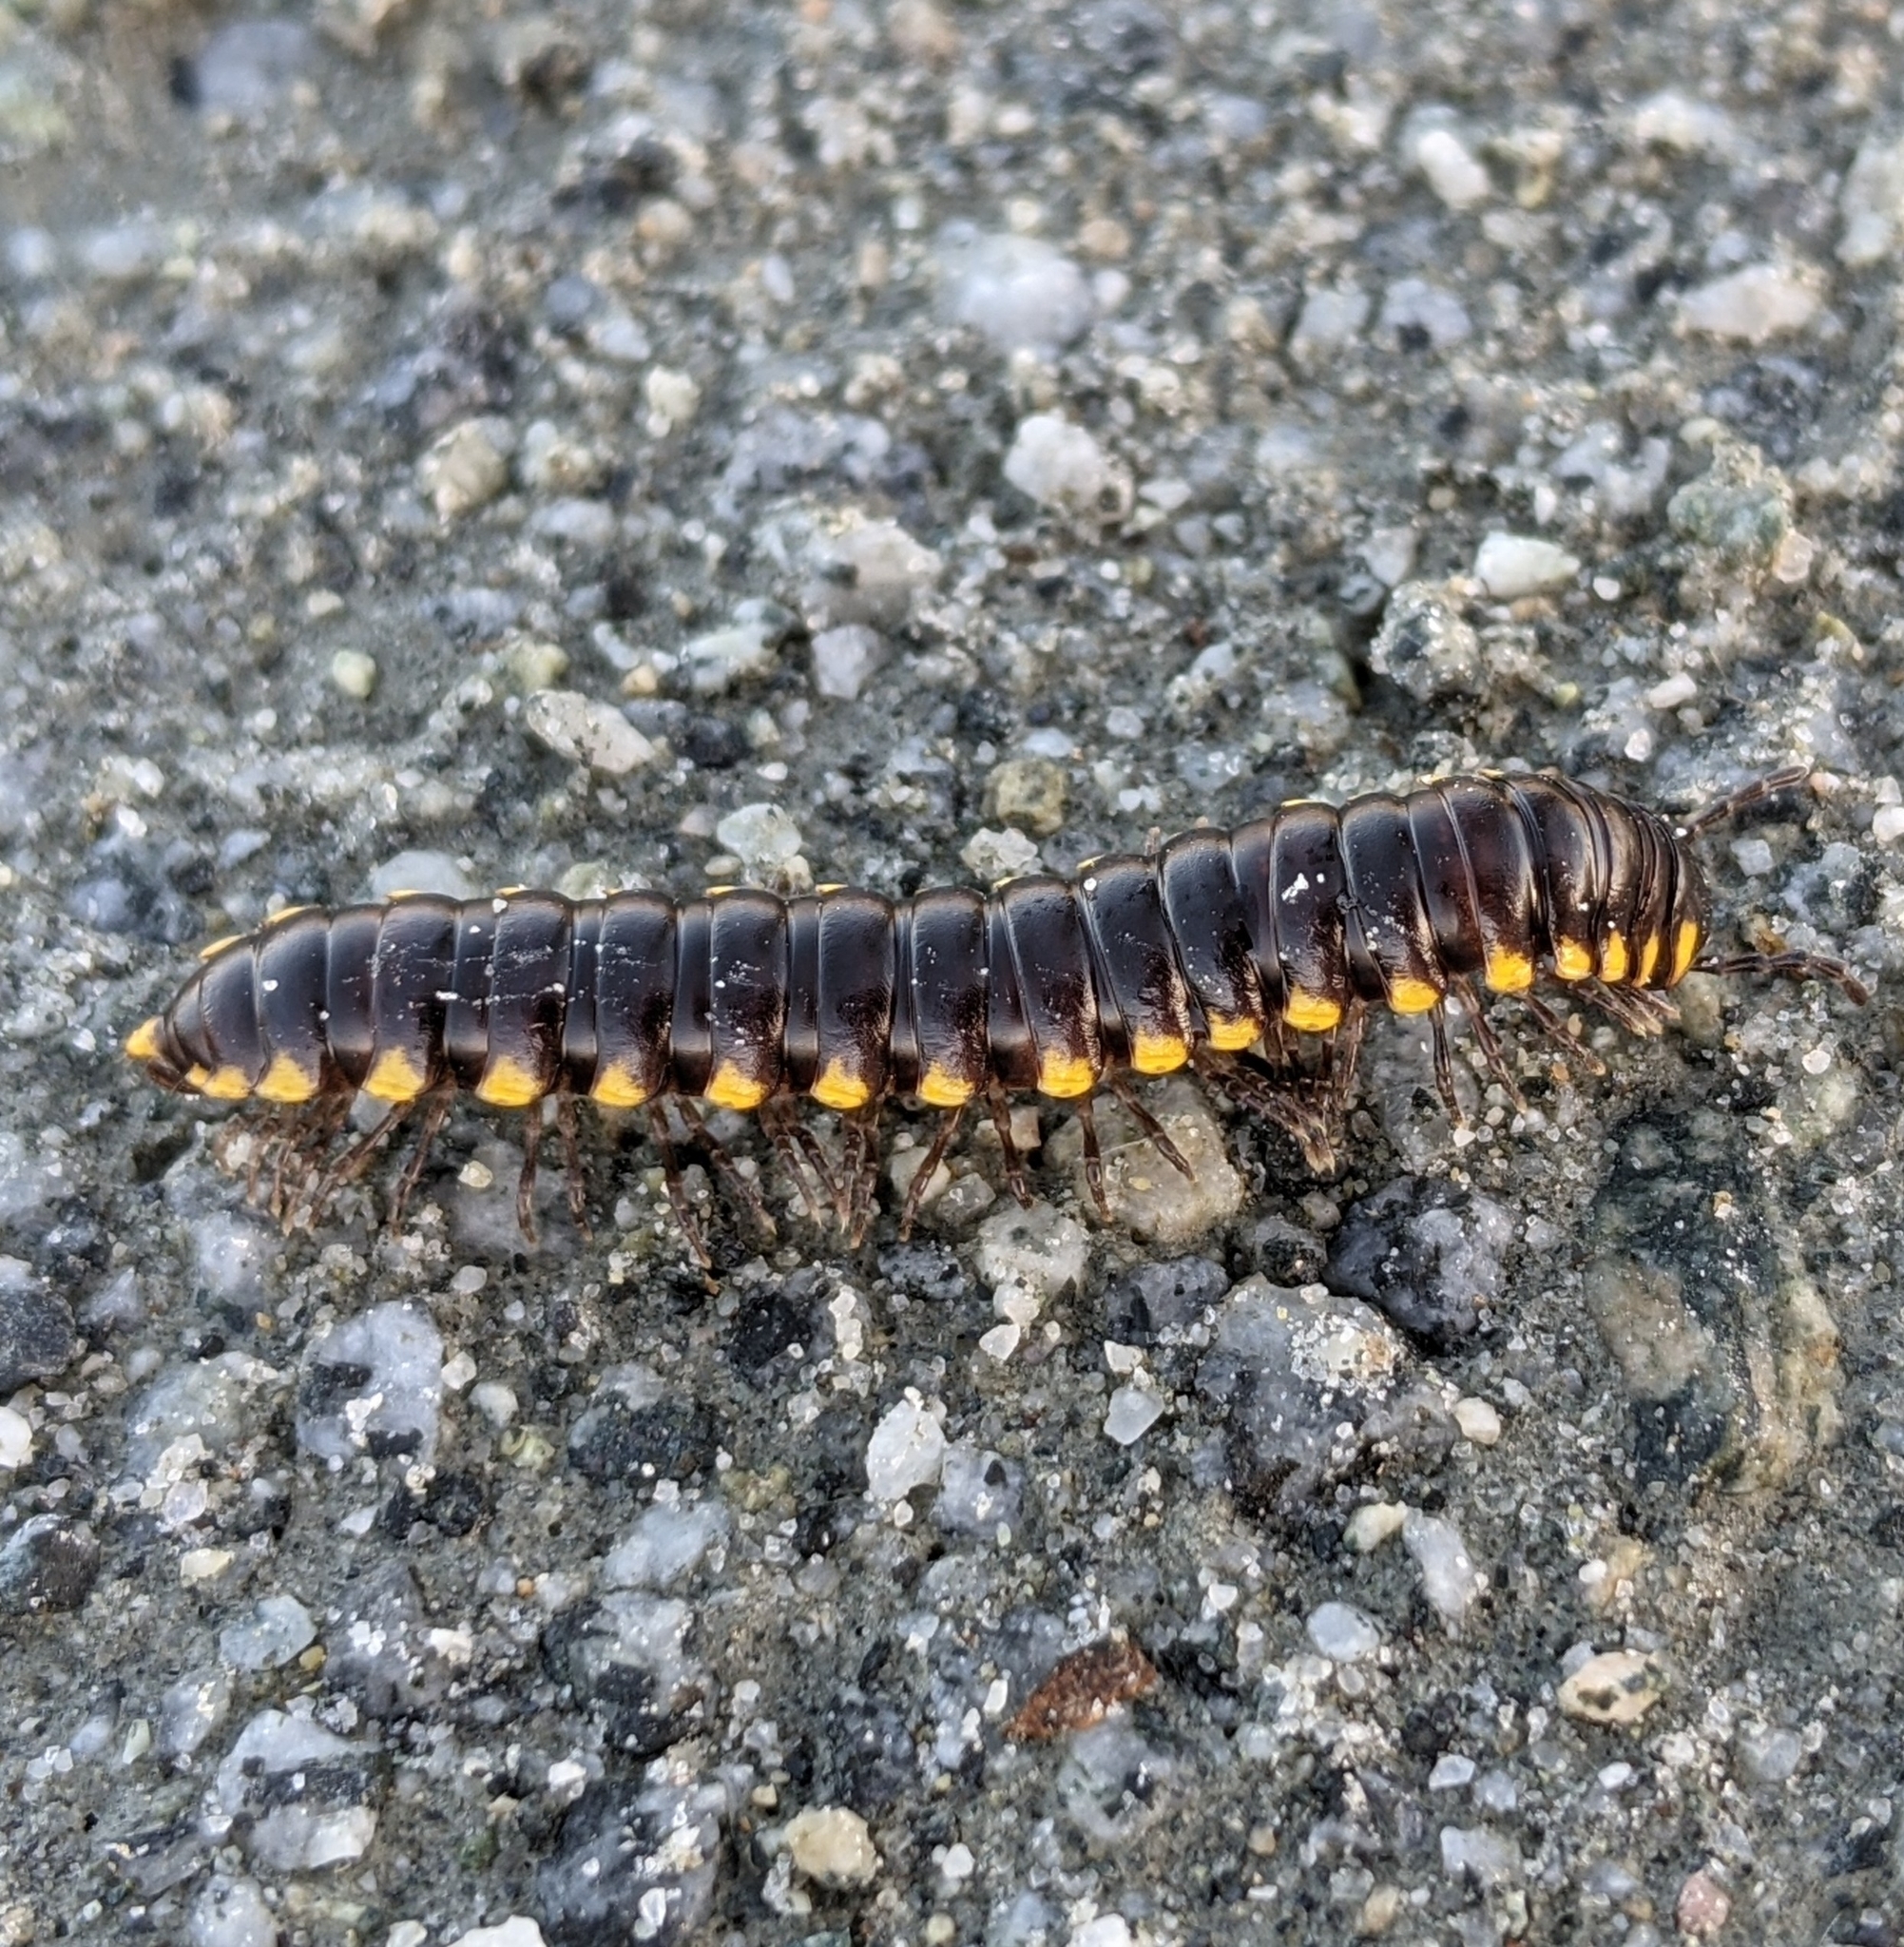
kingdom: Animalia
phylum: Arthropoda
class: Diplopoda
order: Polydesmida
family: Xystodesmidae
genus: Harpaphe
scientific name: Harpaphe haydeniana
